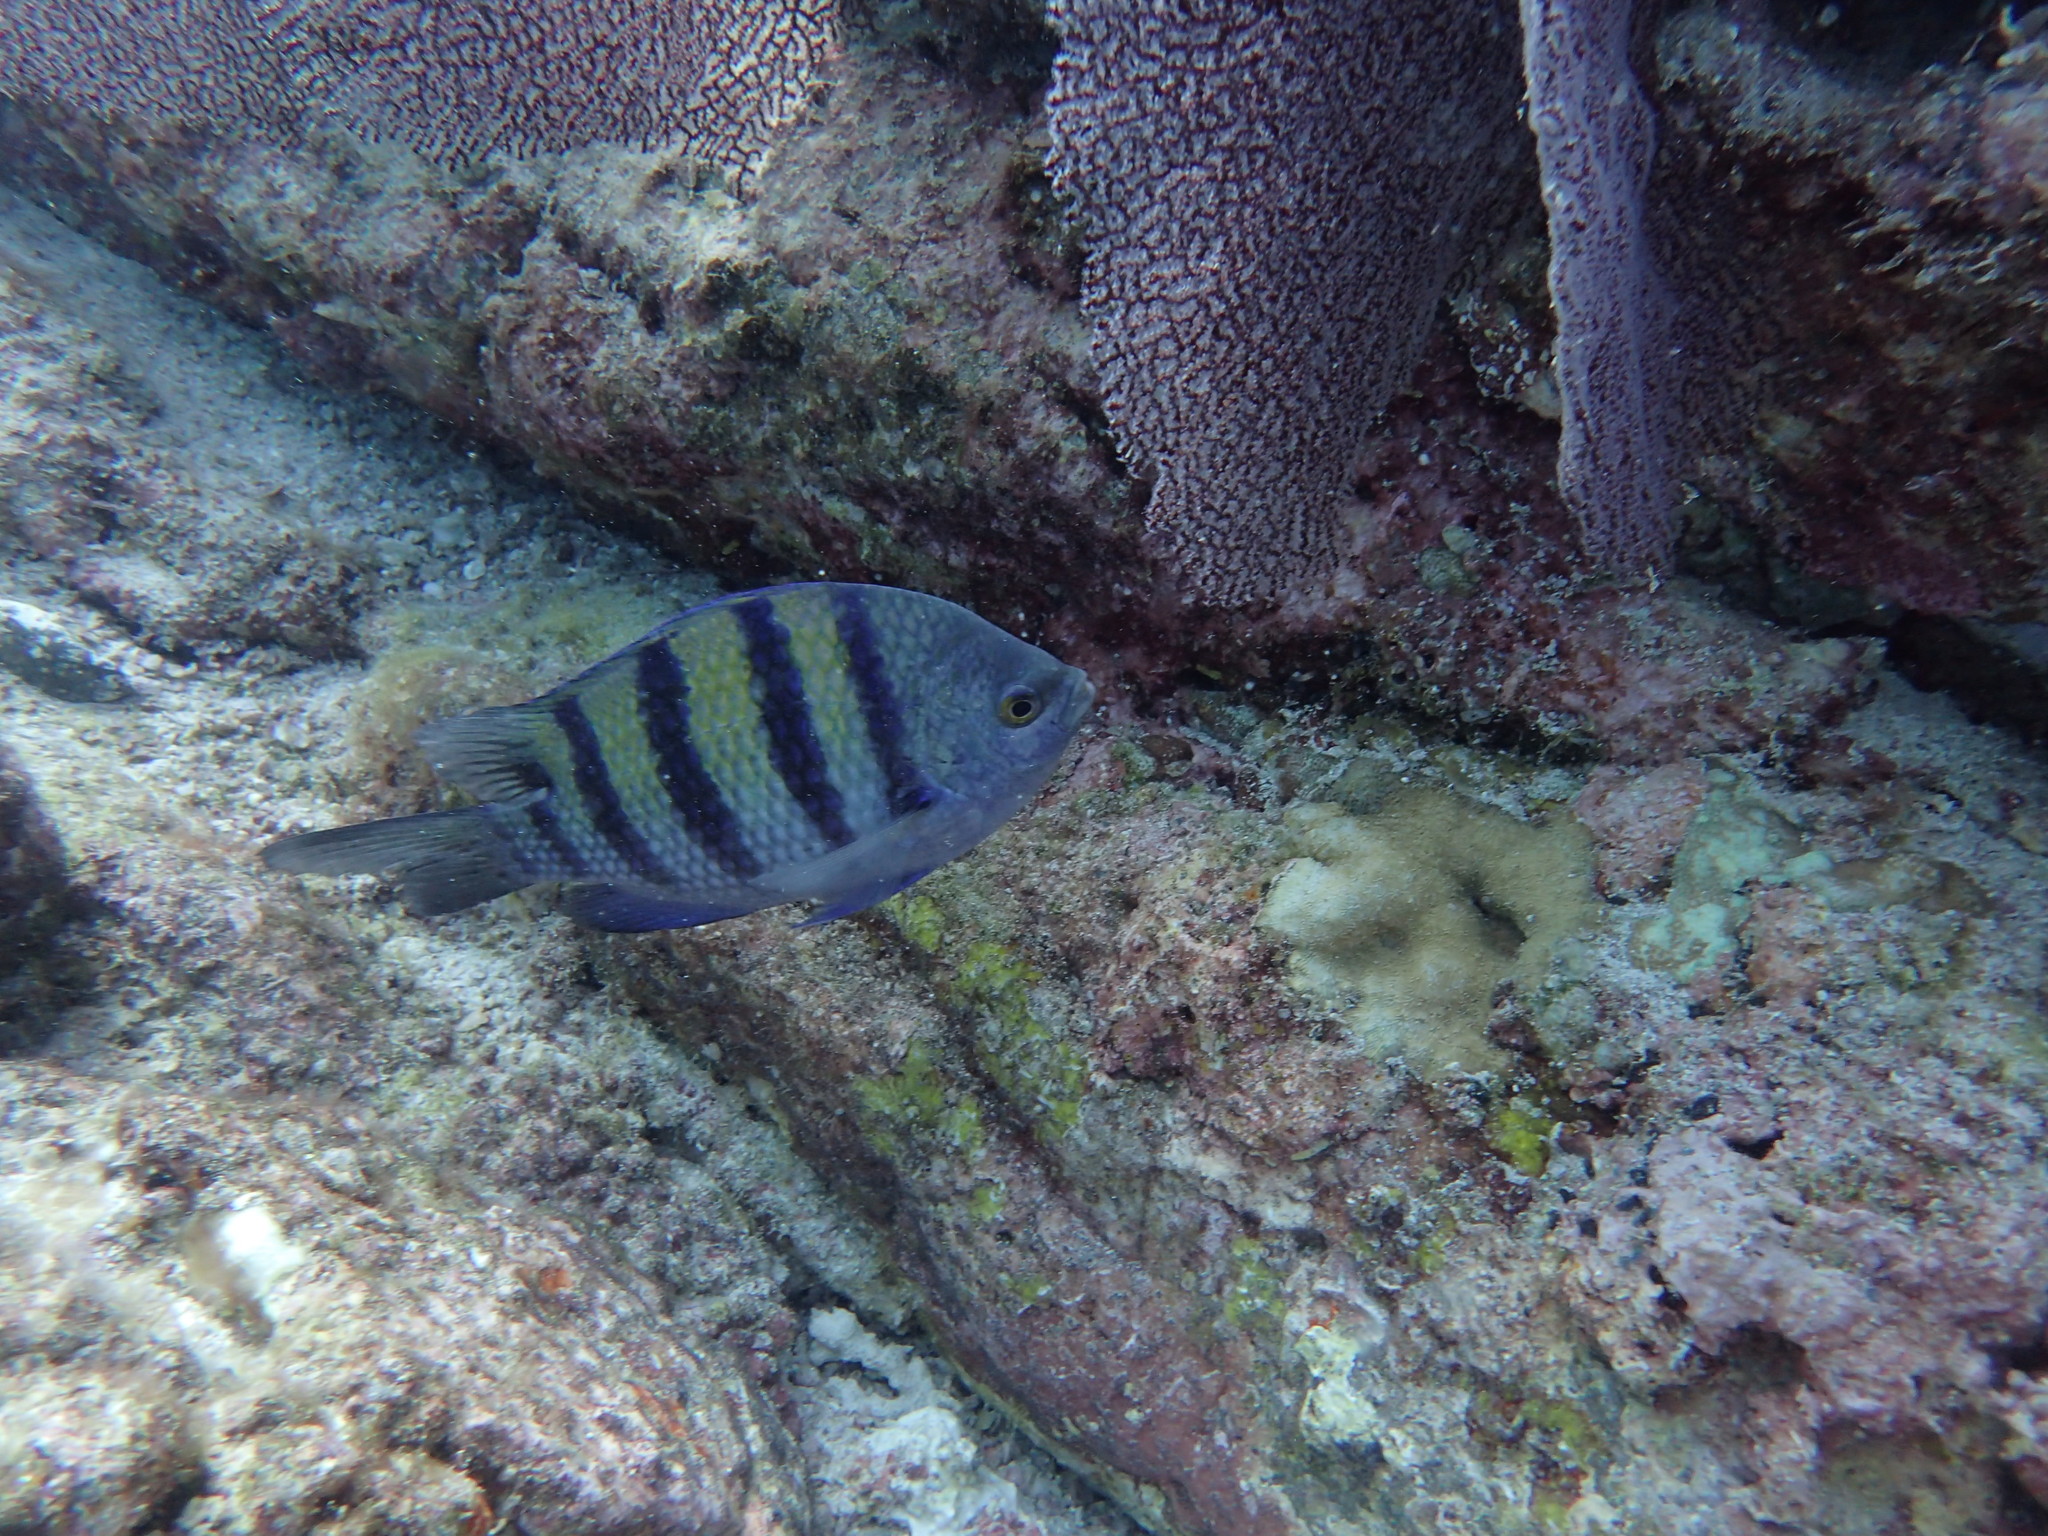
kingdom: Animalia
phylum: Chordata
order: Perciformes
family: Pomacentridae
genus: Abudefduf
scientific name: Abudefduf troschelii
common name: Panamic sergeant major
